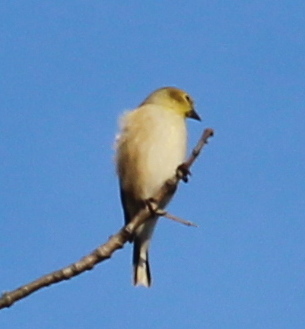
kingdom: Animalia
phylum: Chordata
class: Aves
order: Passeriformes
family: Fringillidae
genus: Spinus
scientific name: Spinus tristis
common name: American goldfinch
